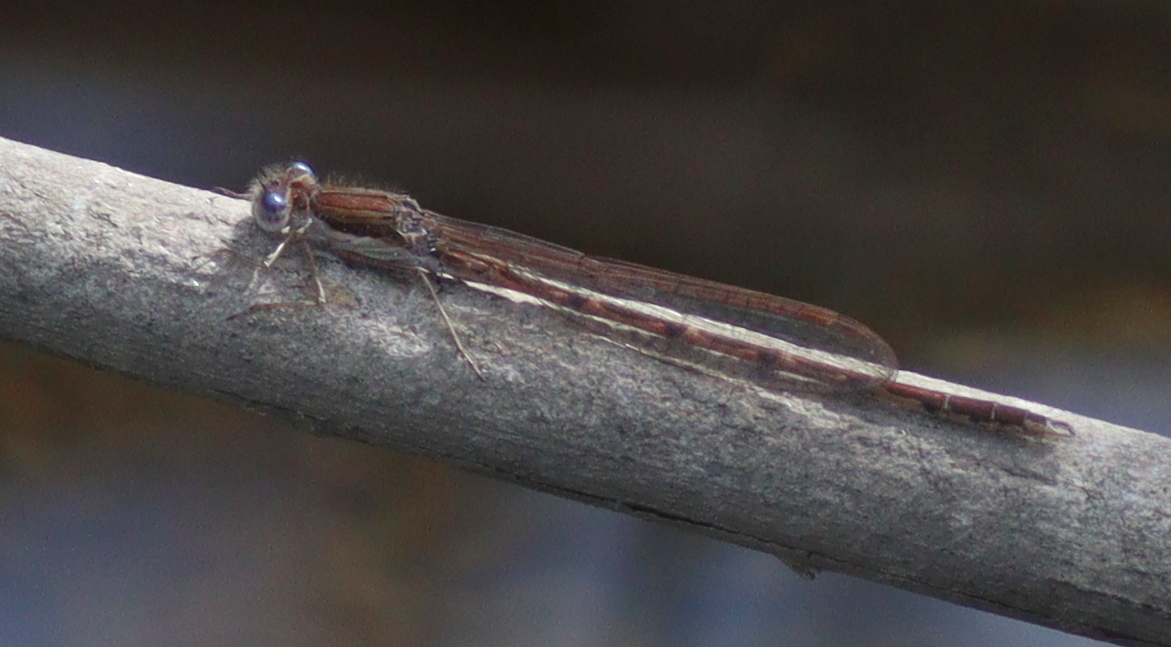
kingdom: Animalia
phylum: Arthropoda
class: Insecta
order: Odonata
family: Lestidae
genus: Sympecma
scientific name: Sympecma fusca
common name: Common winter damsel
